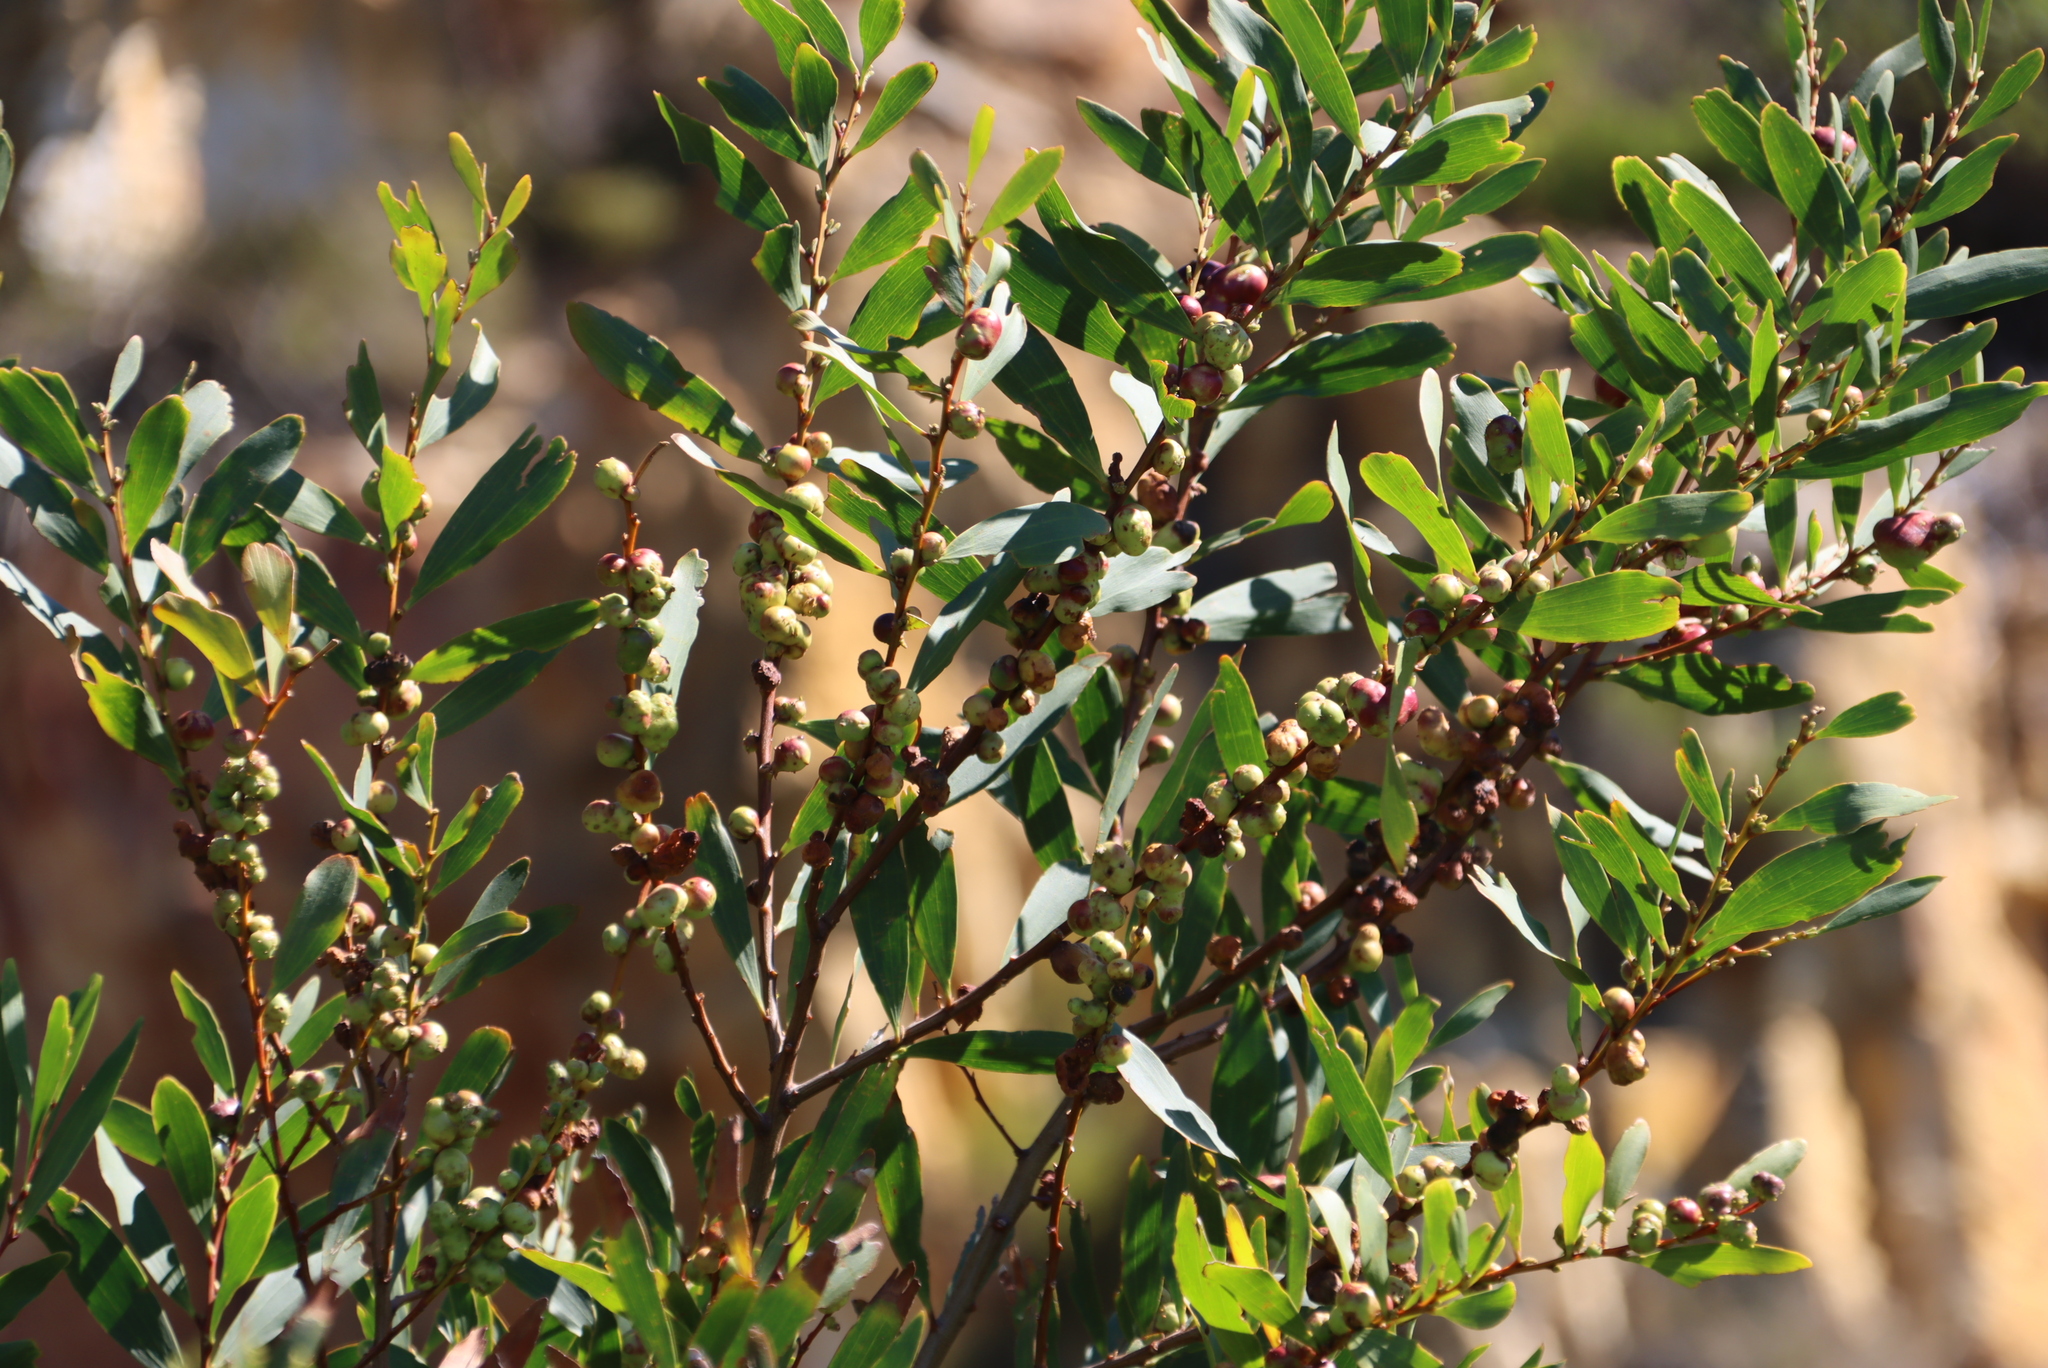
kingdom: Plantae
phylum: Tracheophyta
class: Magnoliopsida
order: Fabales
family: Fabaceae
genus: Acacia
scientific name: Acacia longifolia
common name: Sydney golden wattle
